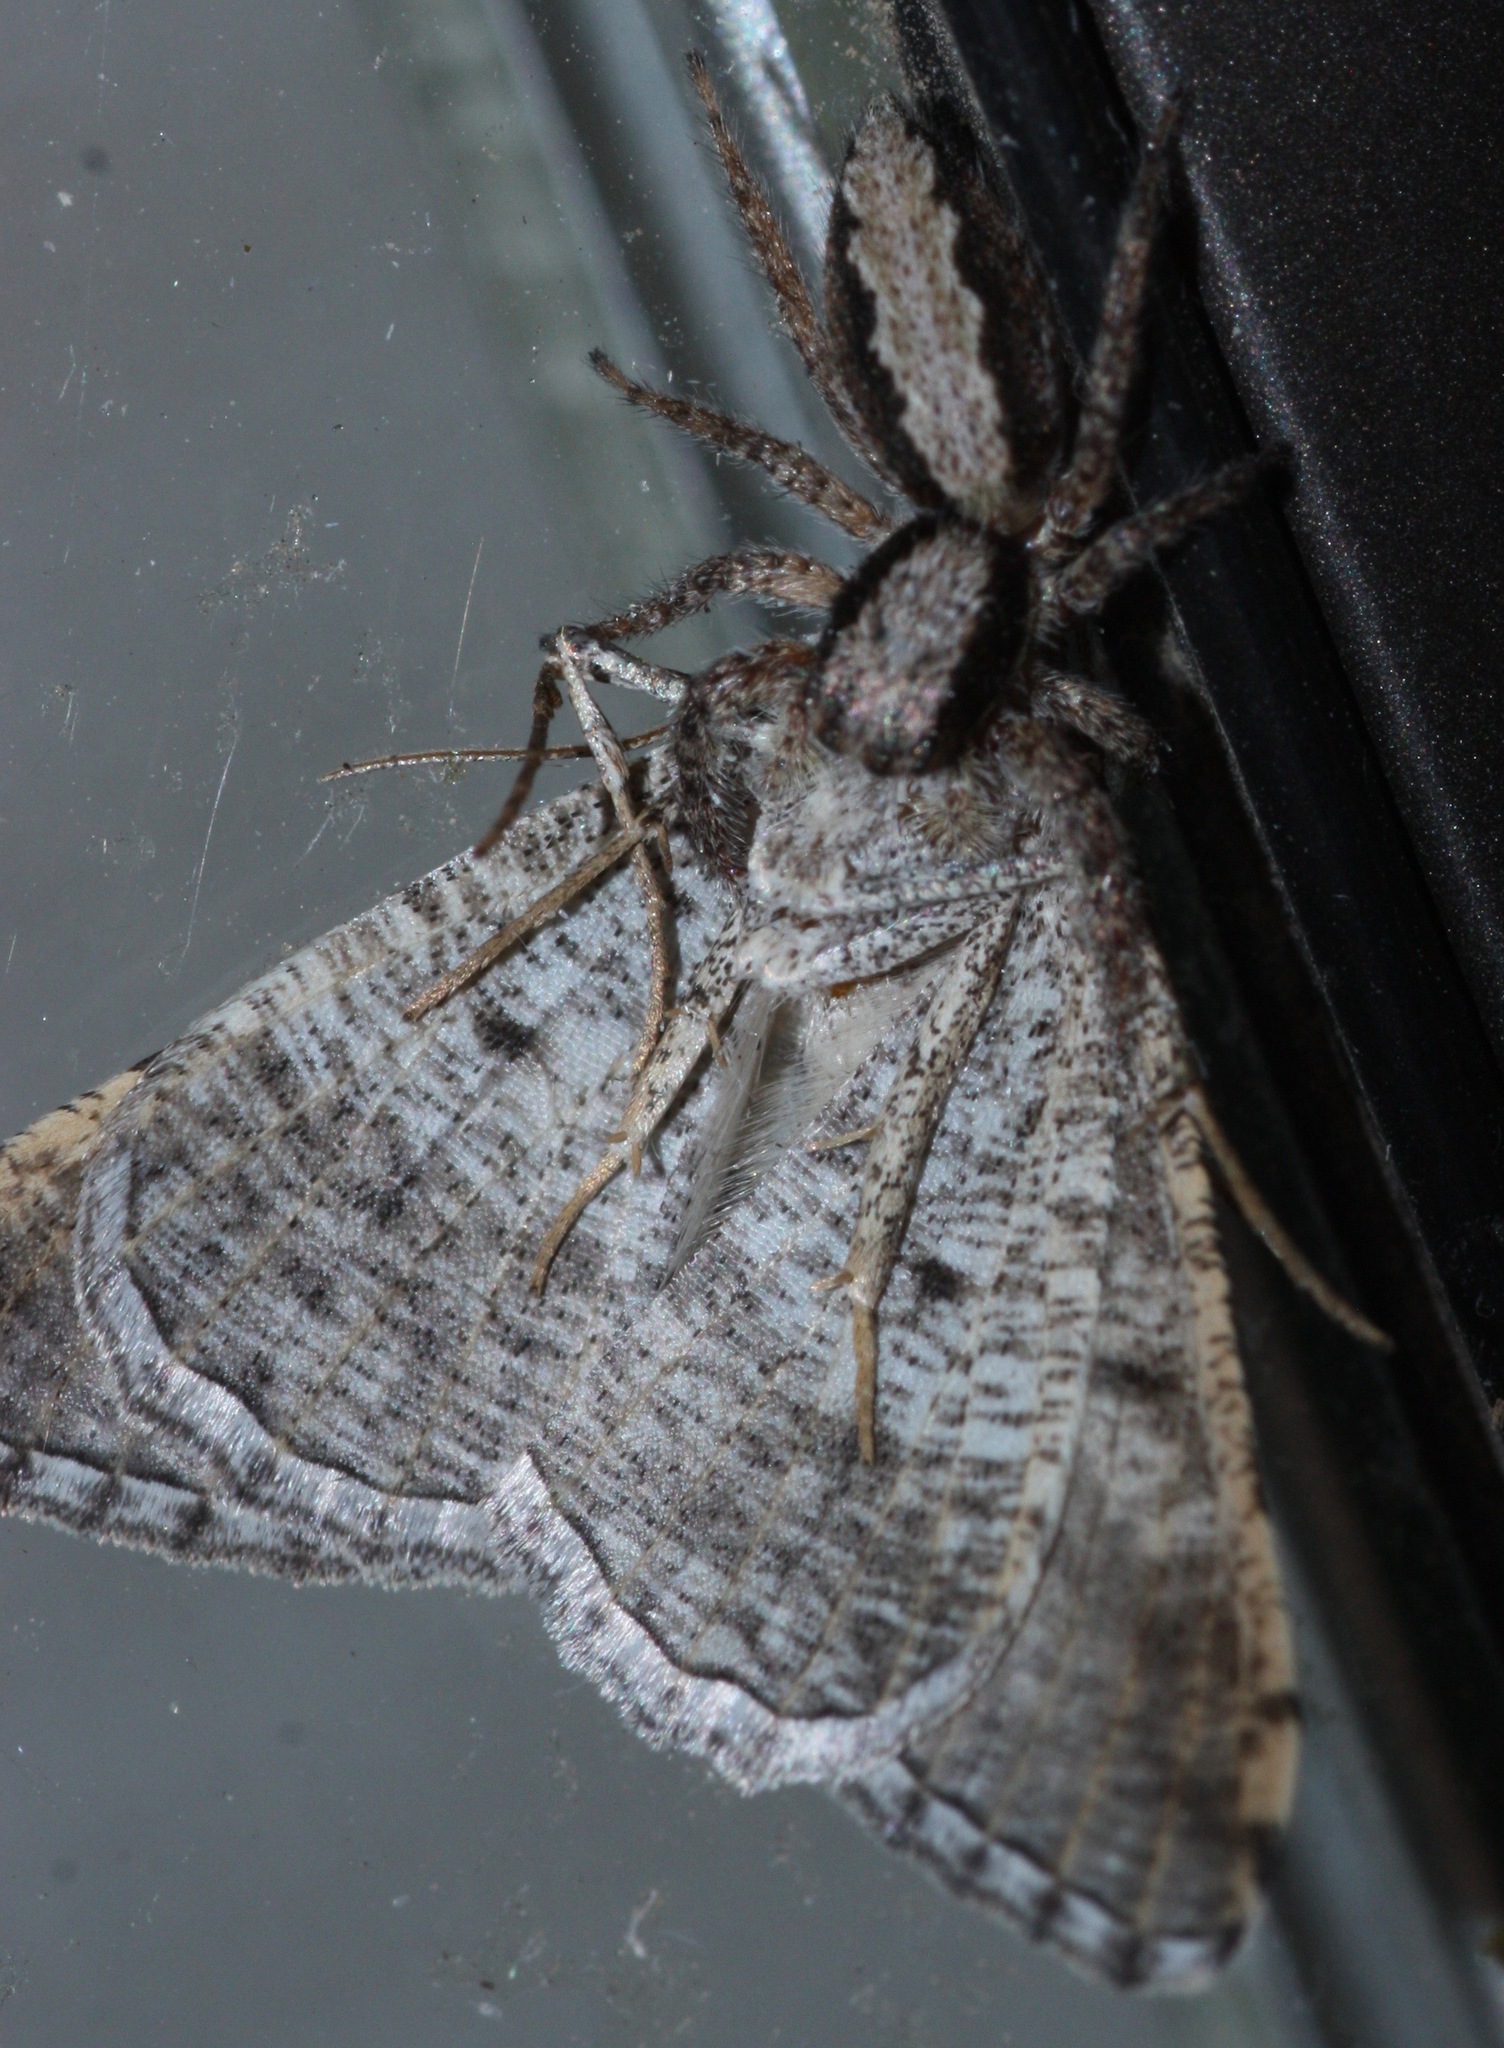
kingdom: Animalia
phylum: Arthropoda
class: Arachnida
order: Araneae
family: Salticidae
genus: Platycryptus
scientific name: Platycryptus californicus
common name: Jumping spiders
